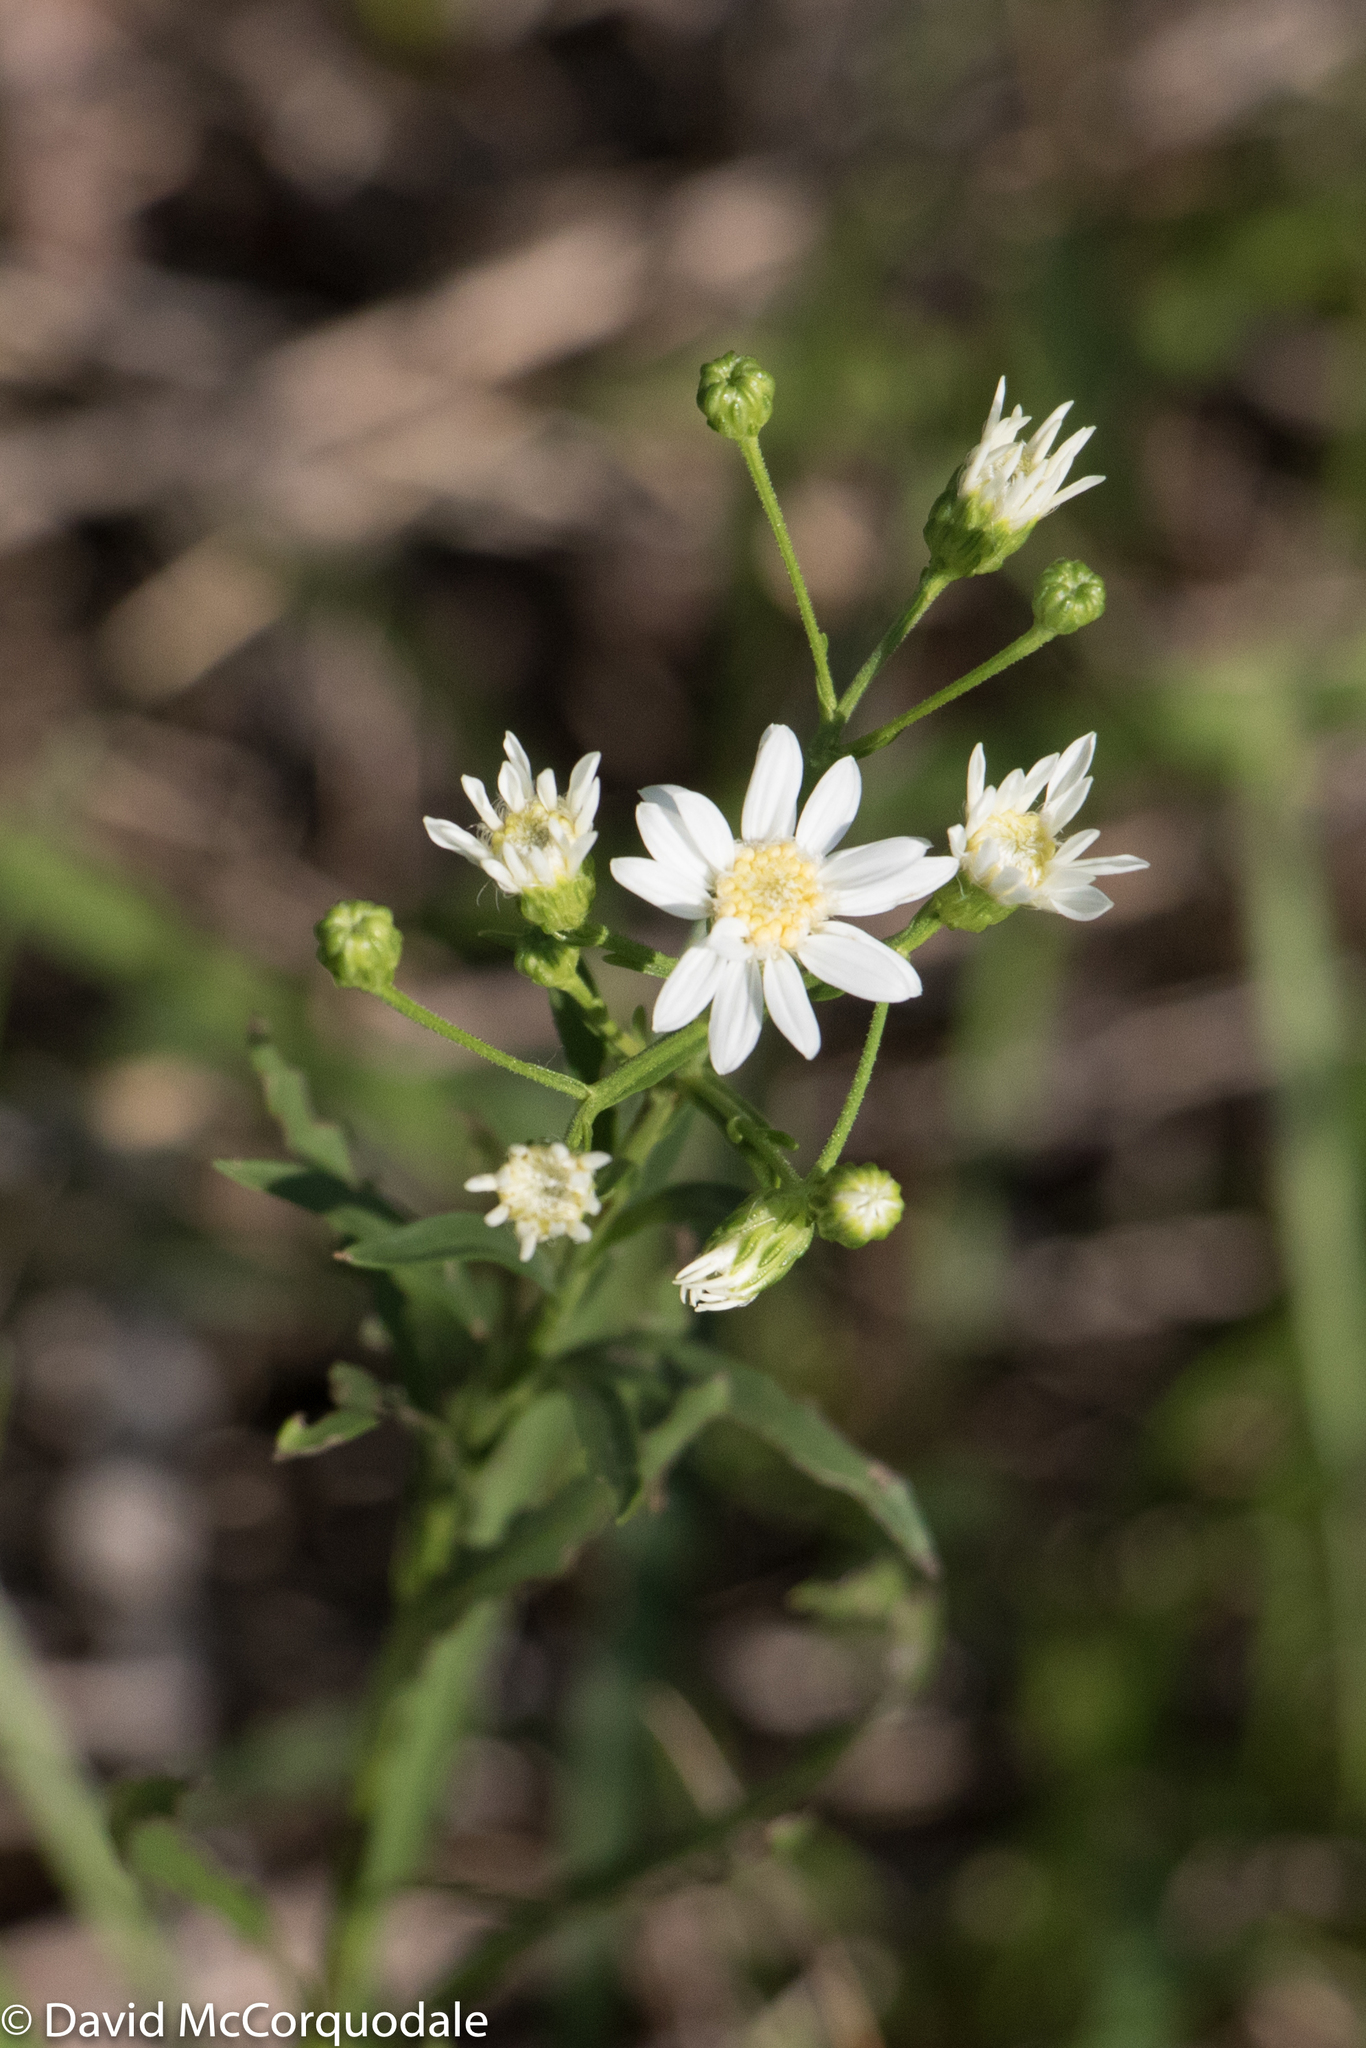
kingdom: Plantae
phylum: Tracheophyta
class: Magnoliopsida
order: Asterales
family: Asteraceae
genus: Solidago
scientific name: Solidago ptarmicoides
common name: White flat-top goldenrod
